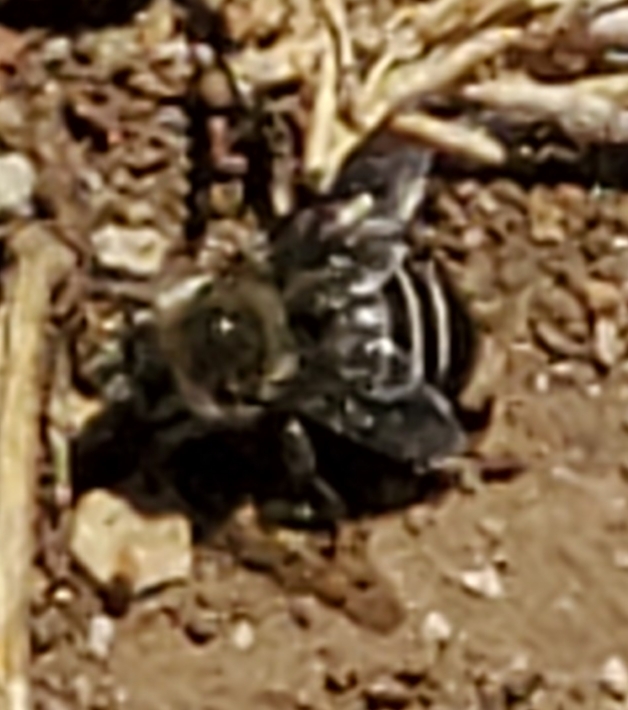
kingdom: Animalia
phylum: Arthropoda
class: Insecta
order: Hymenoptera
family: Apidae
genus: Diadasia
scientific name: Diadasia bituberculata
